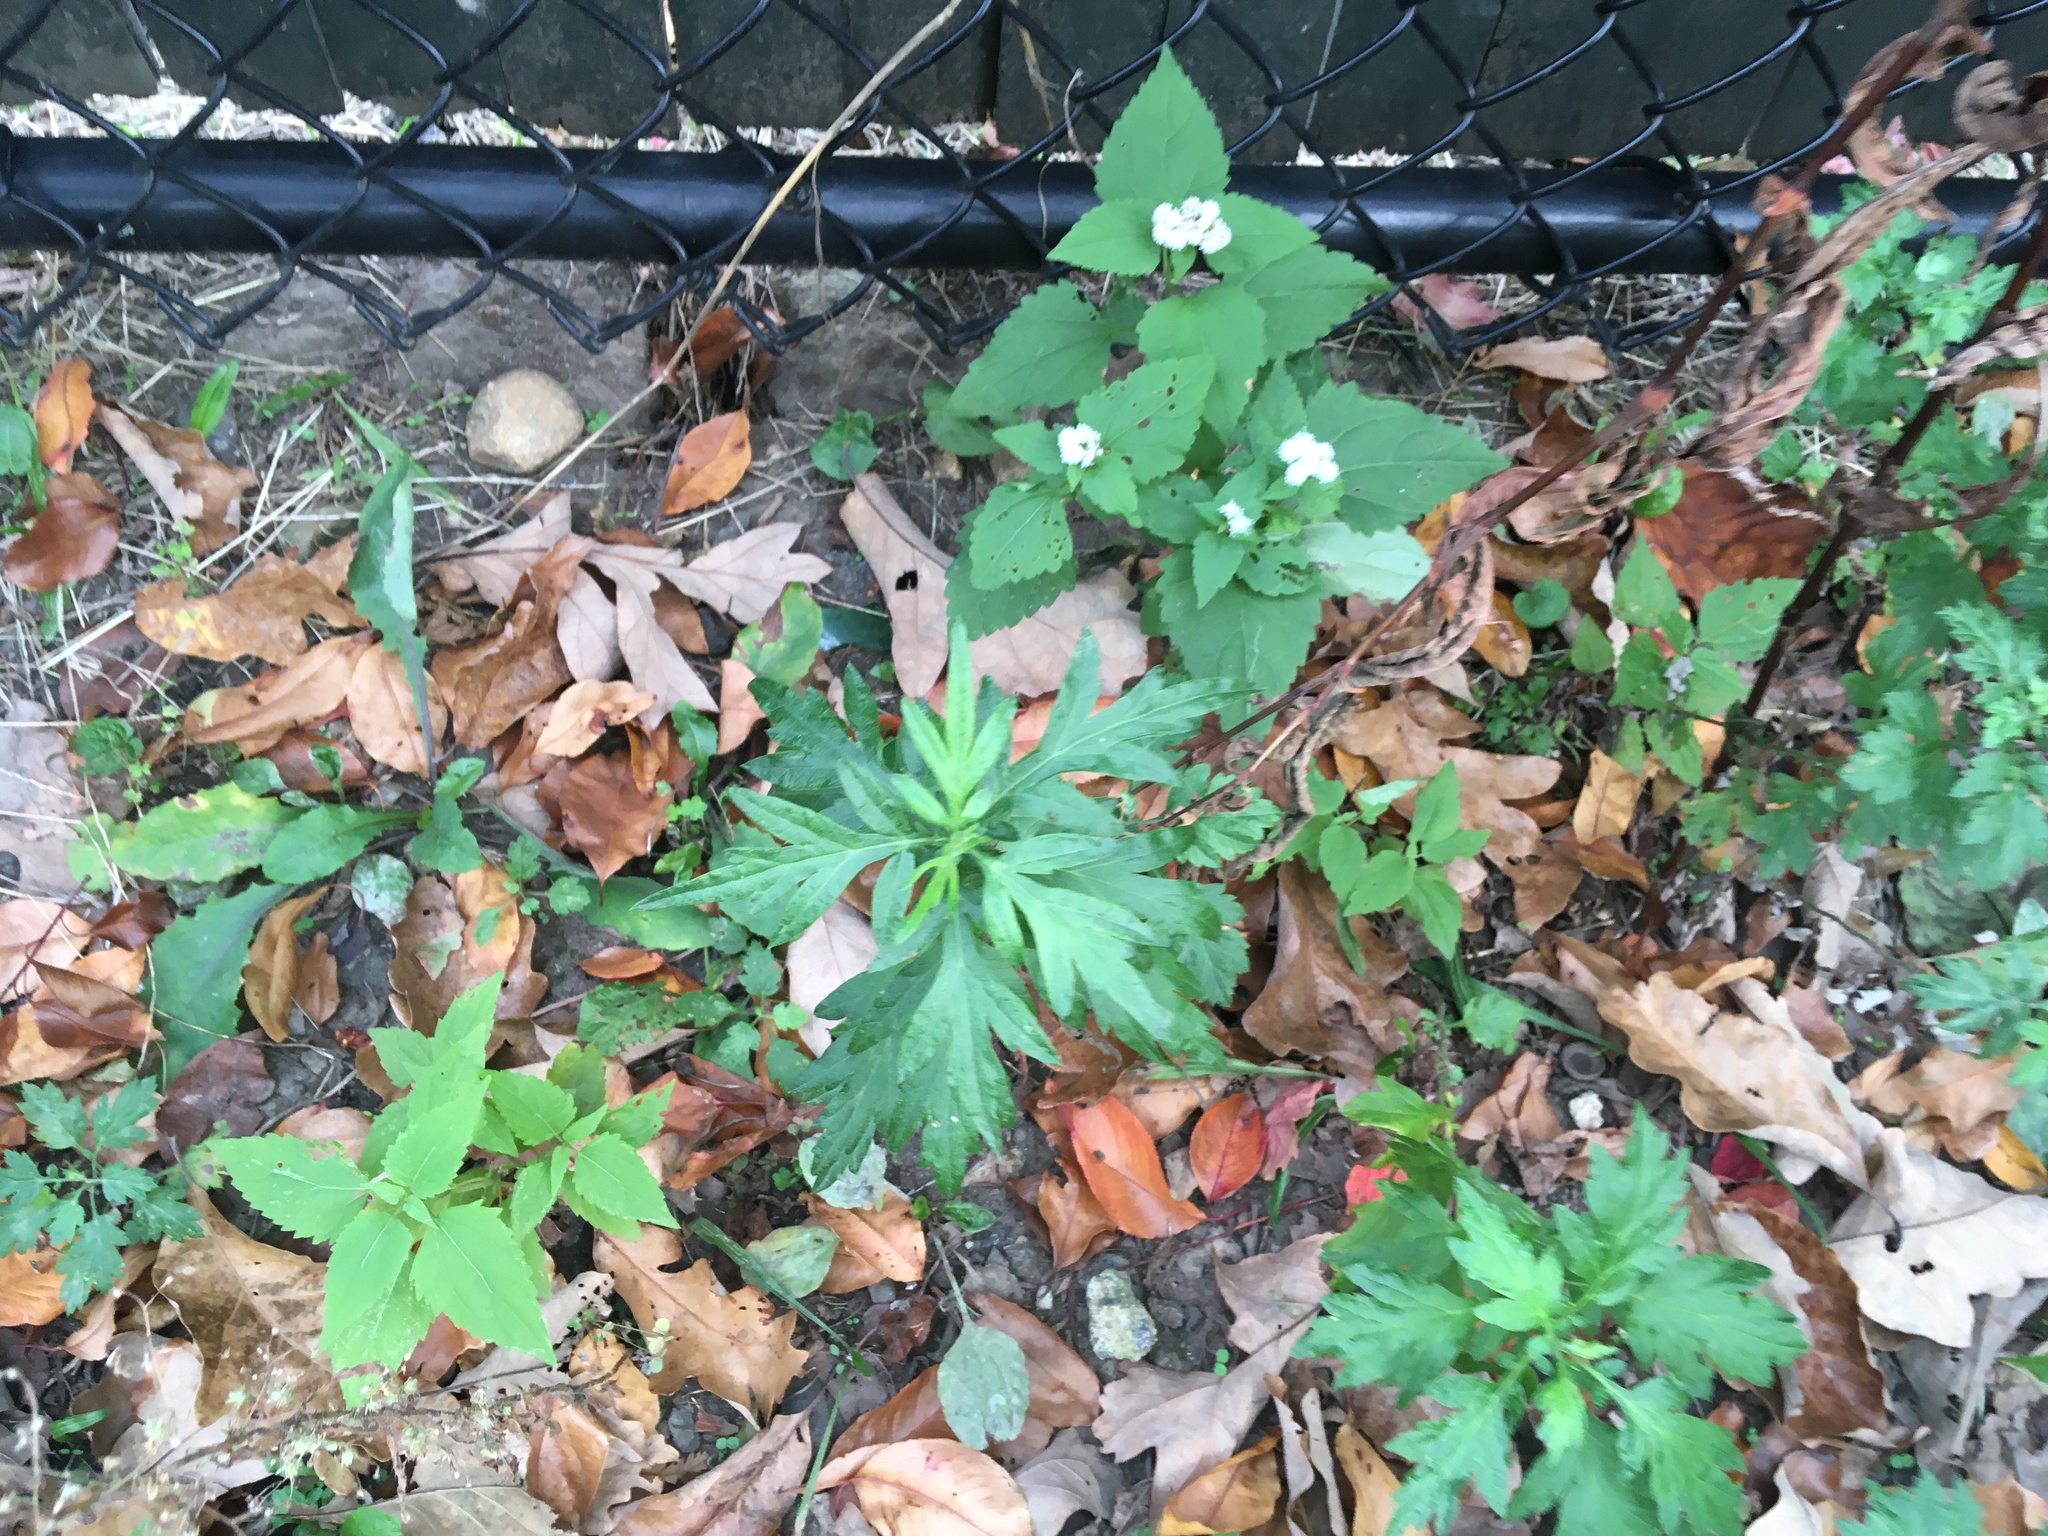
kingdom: Plantae
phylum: Tracheophyta
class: Magnoliopsida
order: Asterales
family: Asteraceae
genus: Artemisia
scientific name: Artemisia vulgaris
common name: Mugwort
